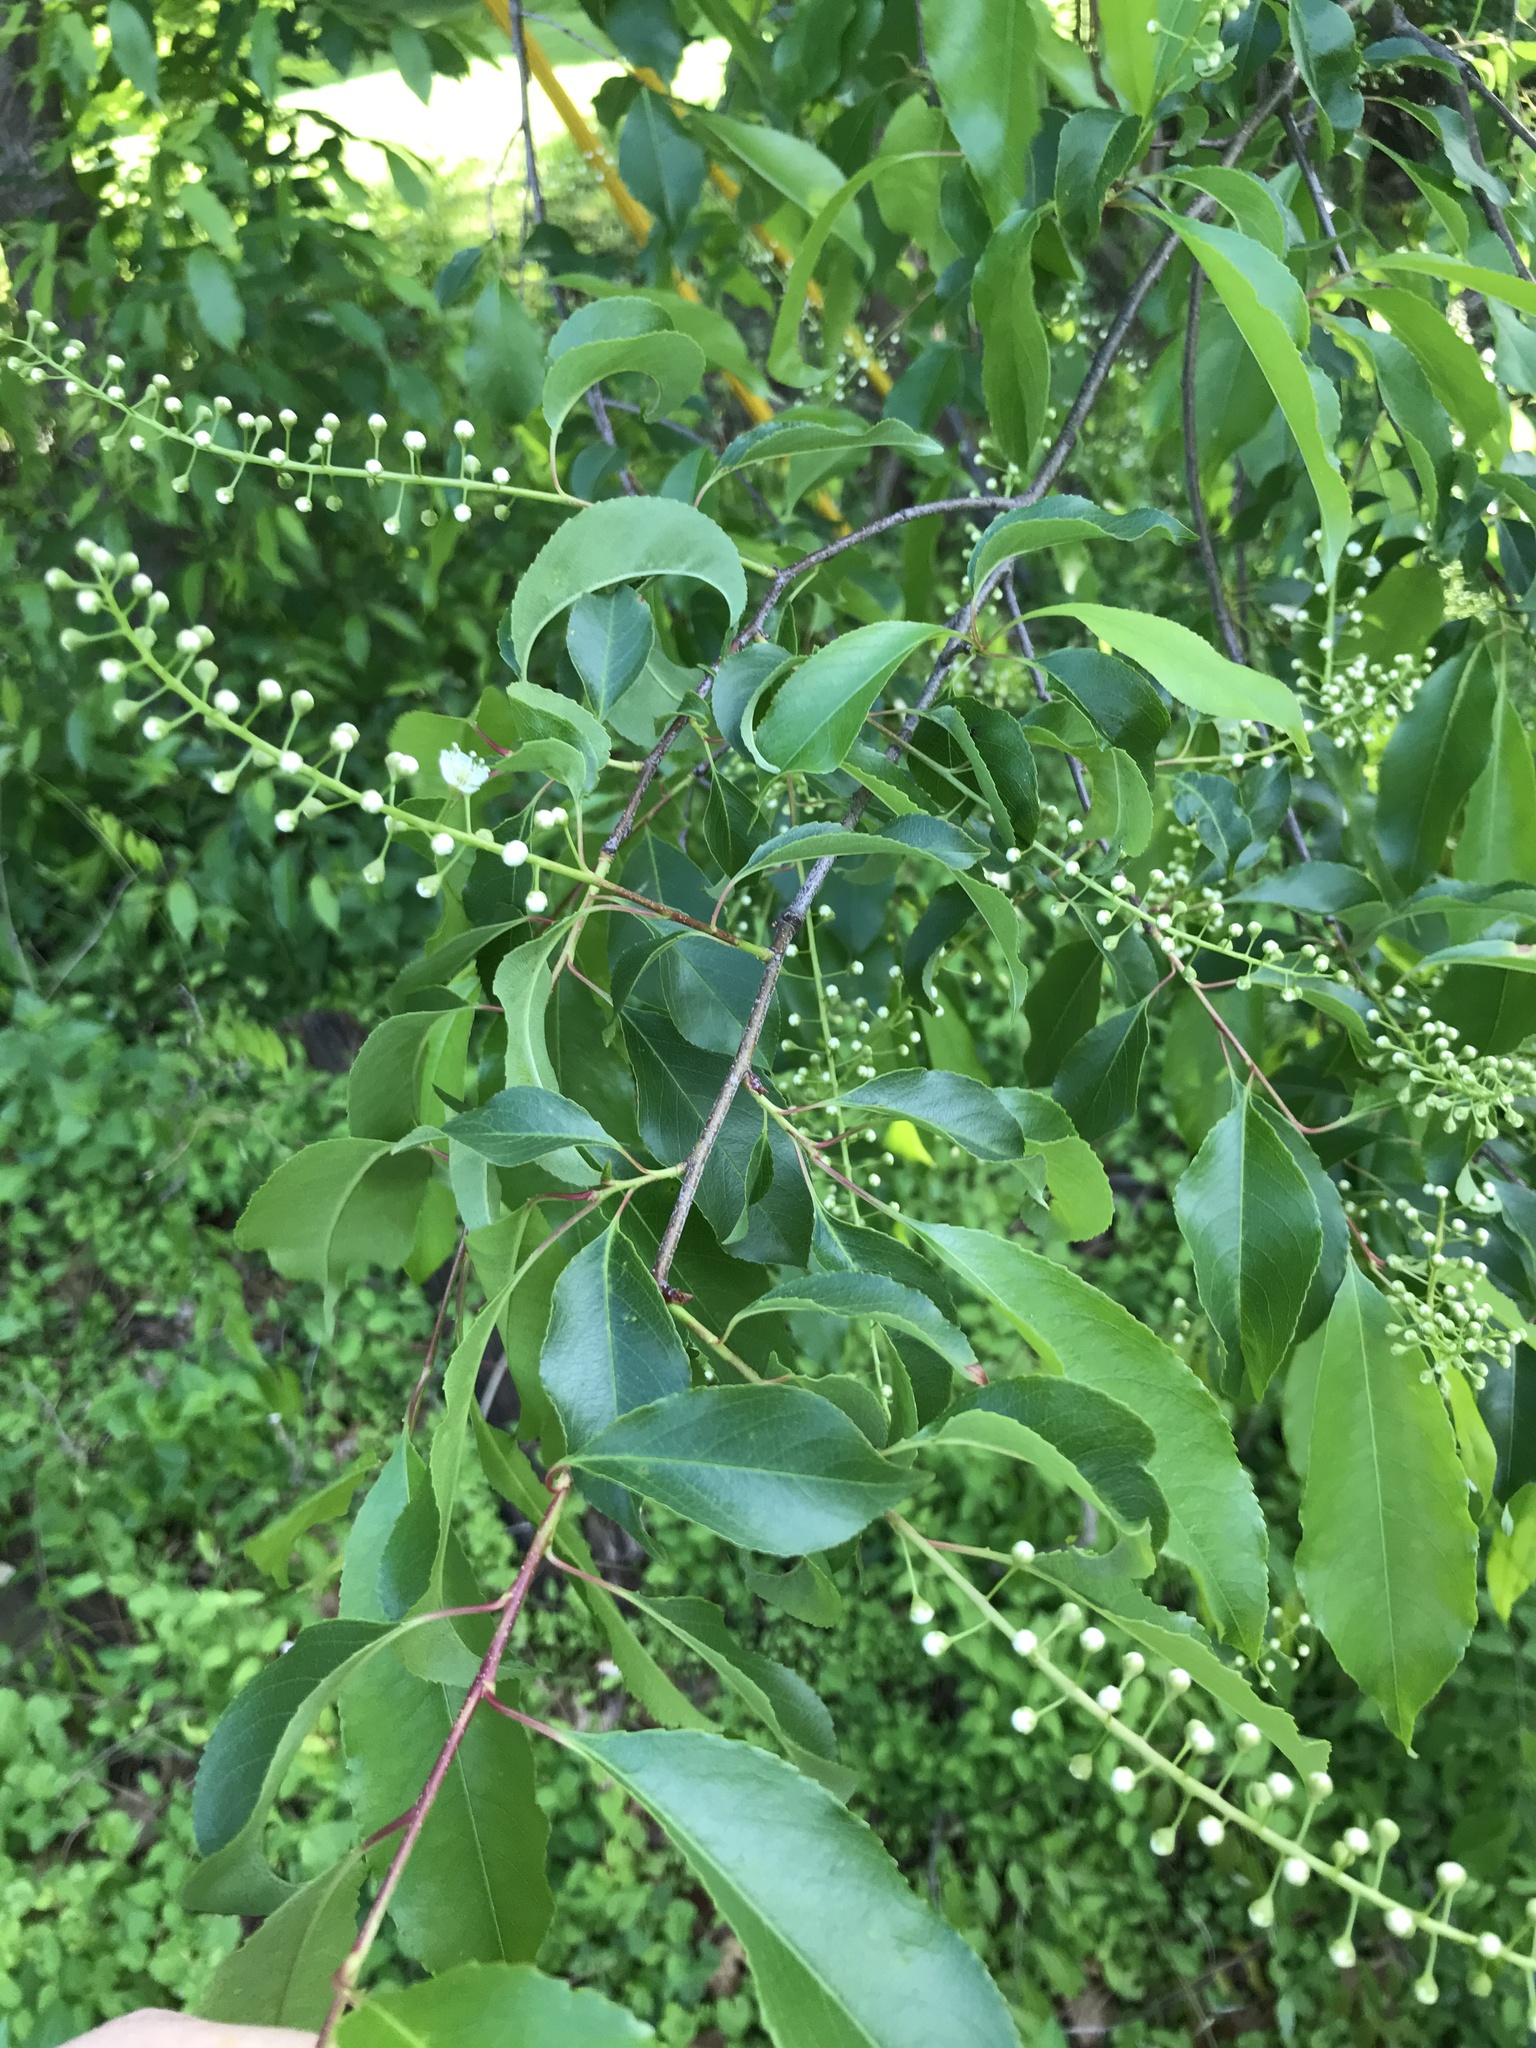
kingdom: Plantae
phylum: Tracheophyta
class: Magnoliopsida
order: Rosales
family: Rosaceae
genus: Prunus
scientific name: Prunus serotina
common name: Black cherry
